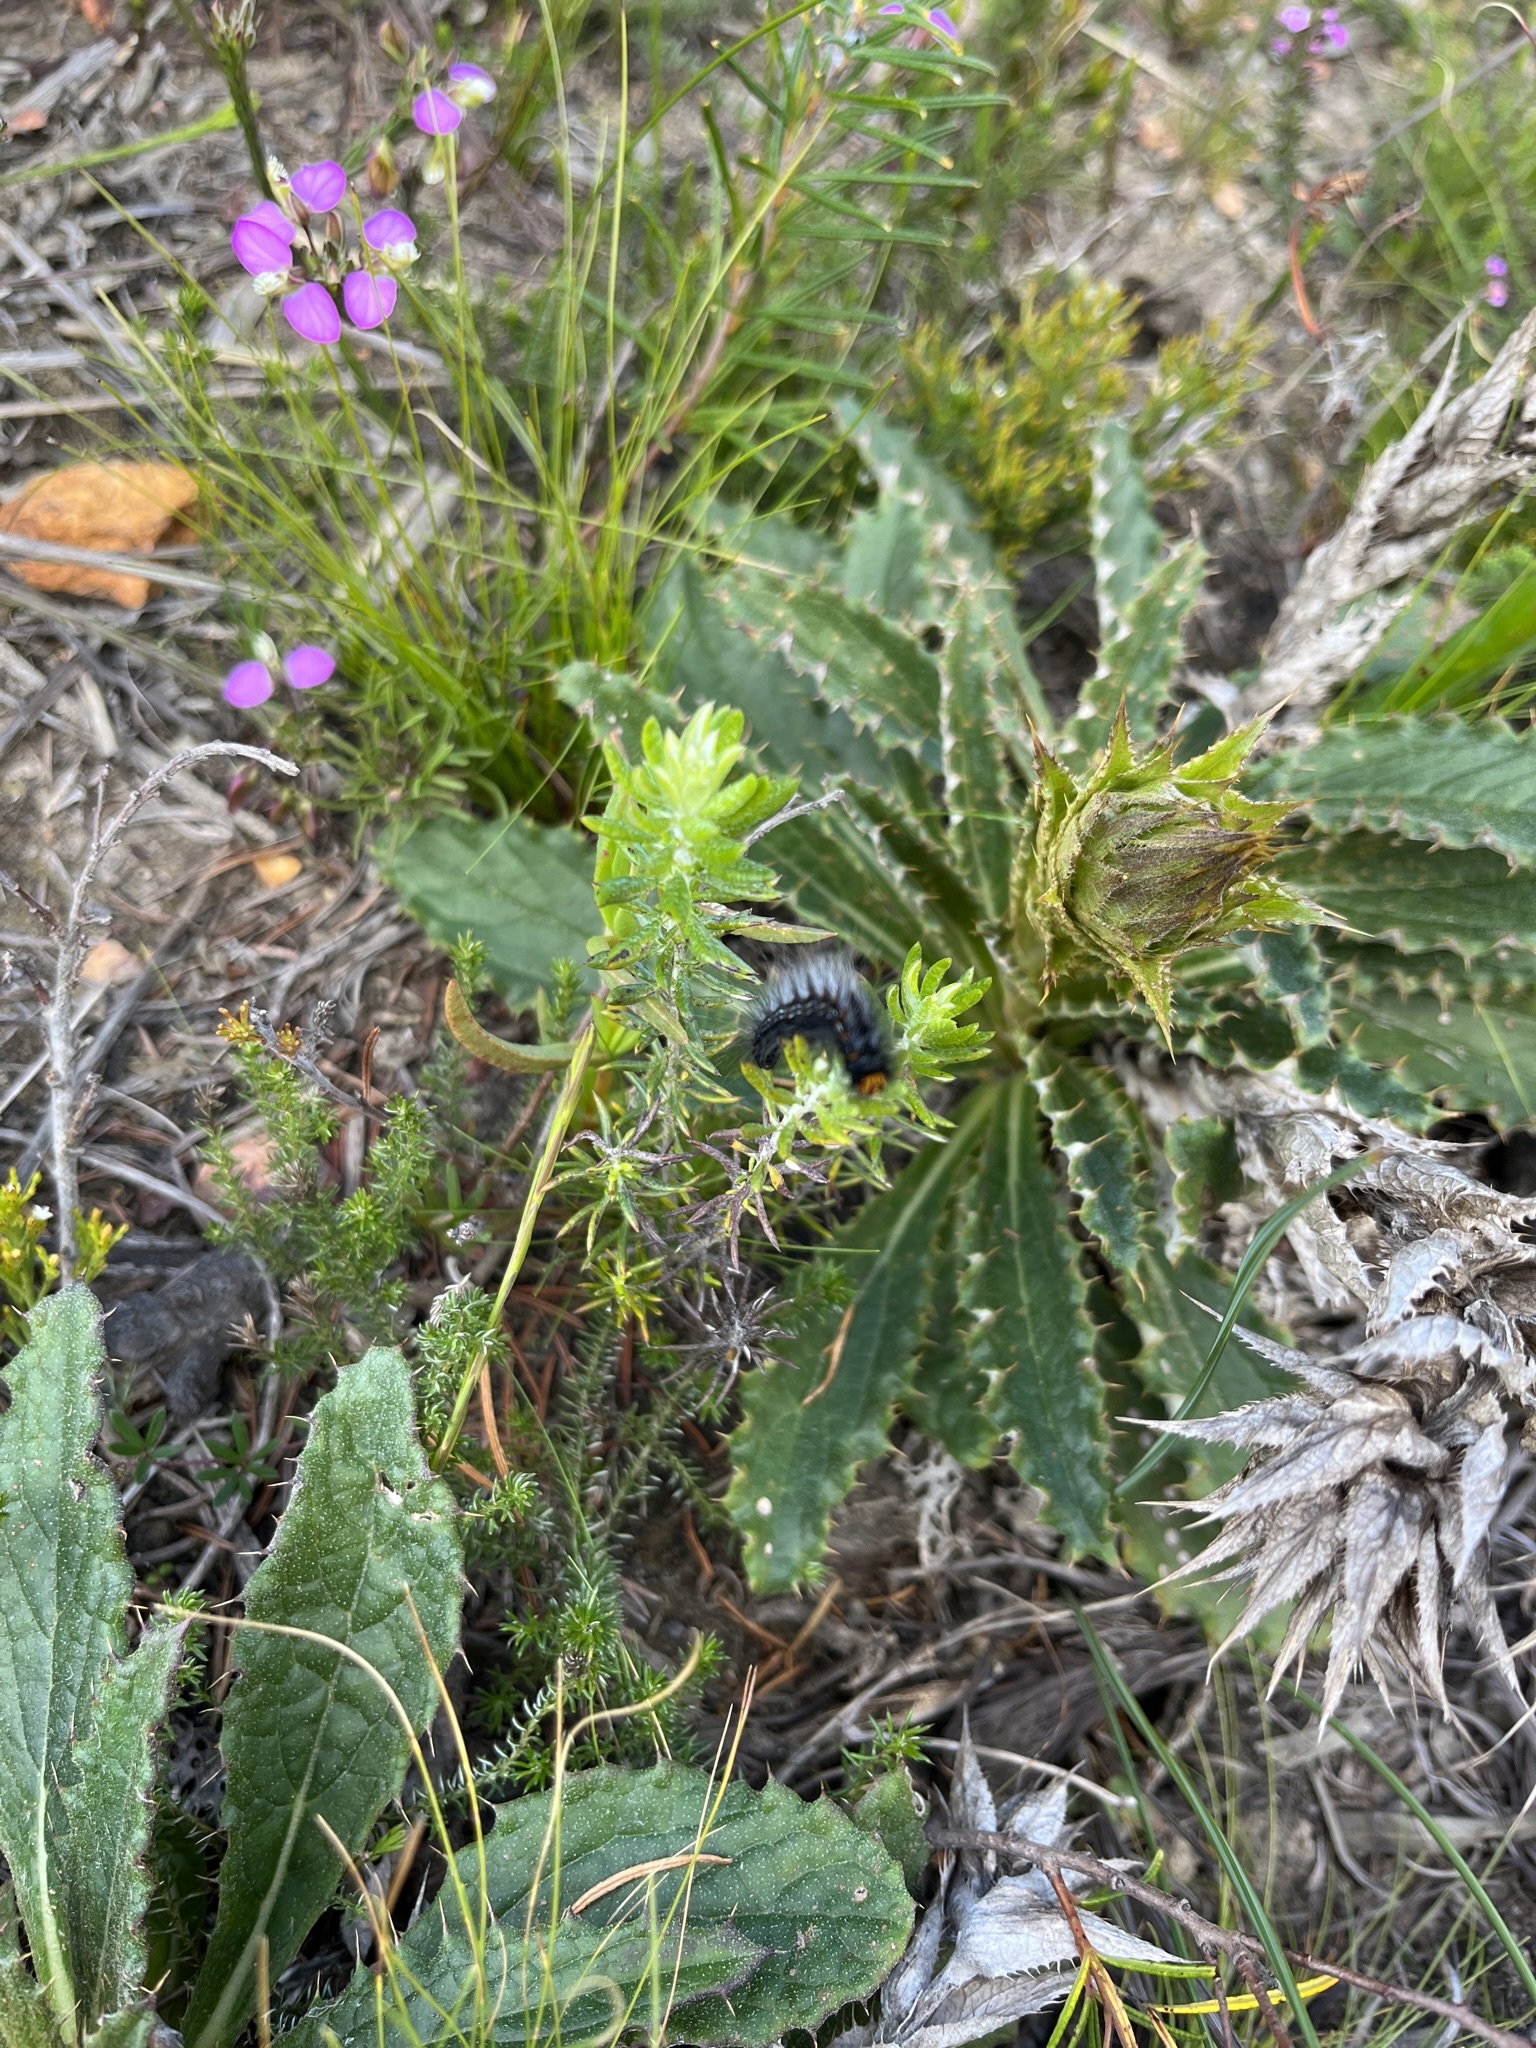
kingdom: Plantae
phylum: Tracheophyta
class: Magnoliopsida
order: Asterales
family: Asteraceae
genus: Berkheya
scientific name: Berkheya armata
